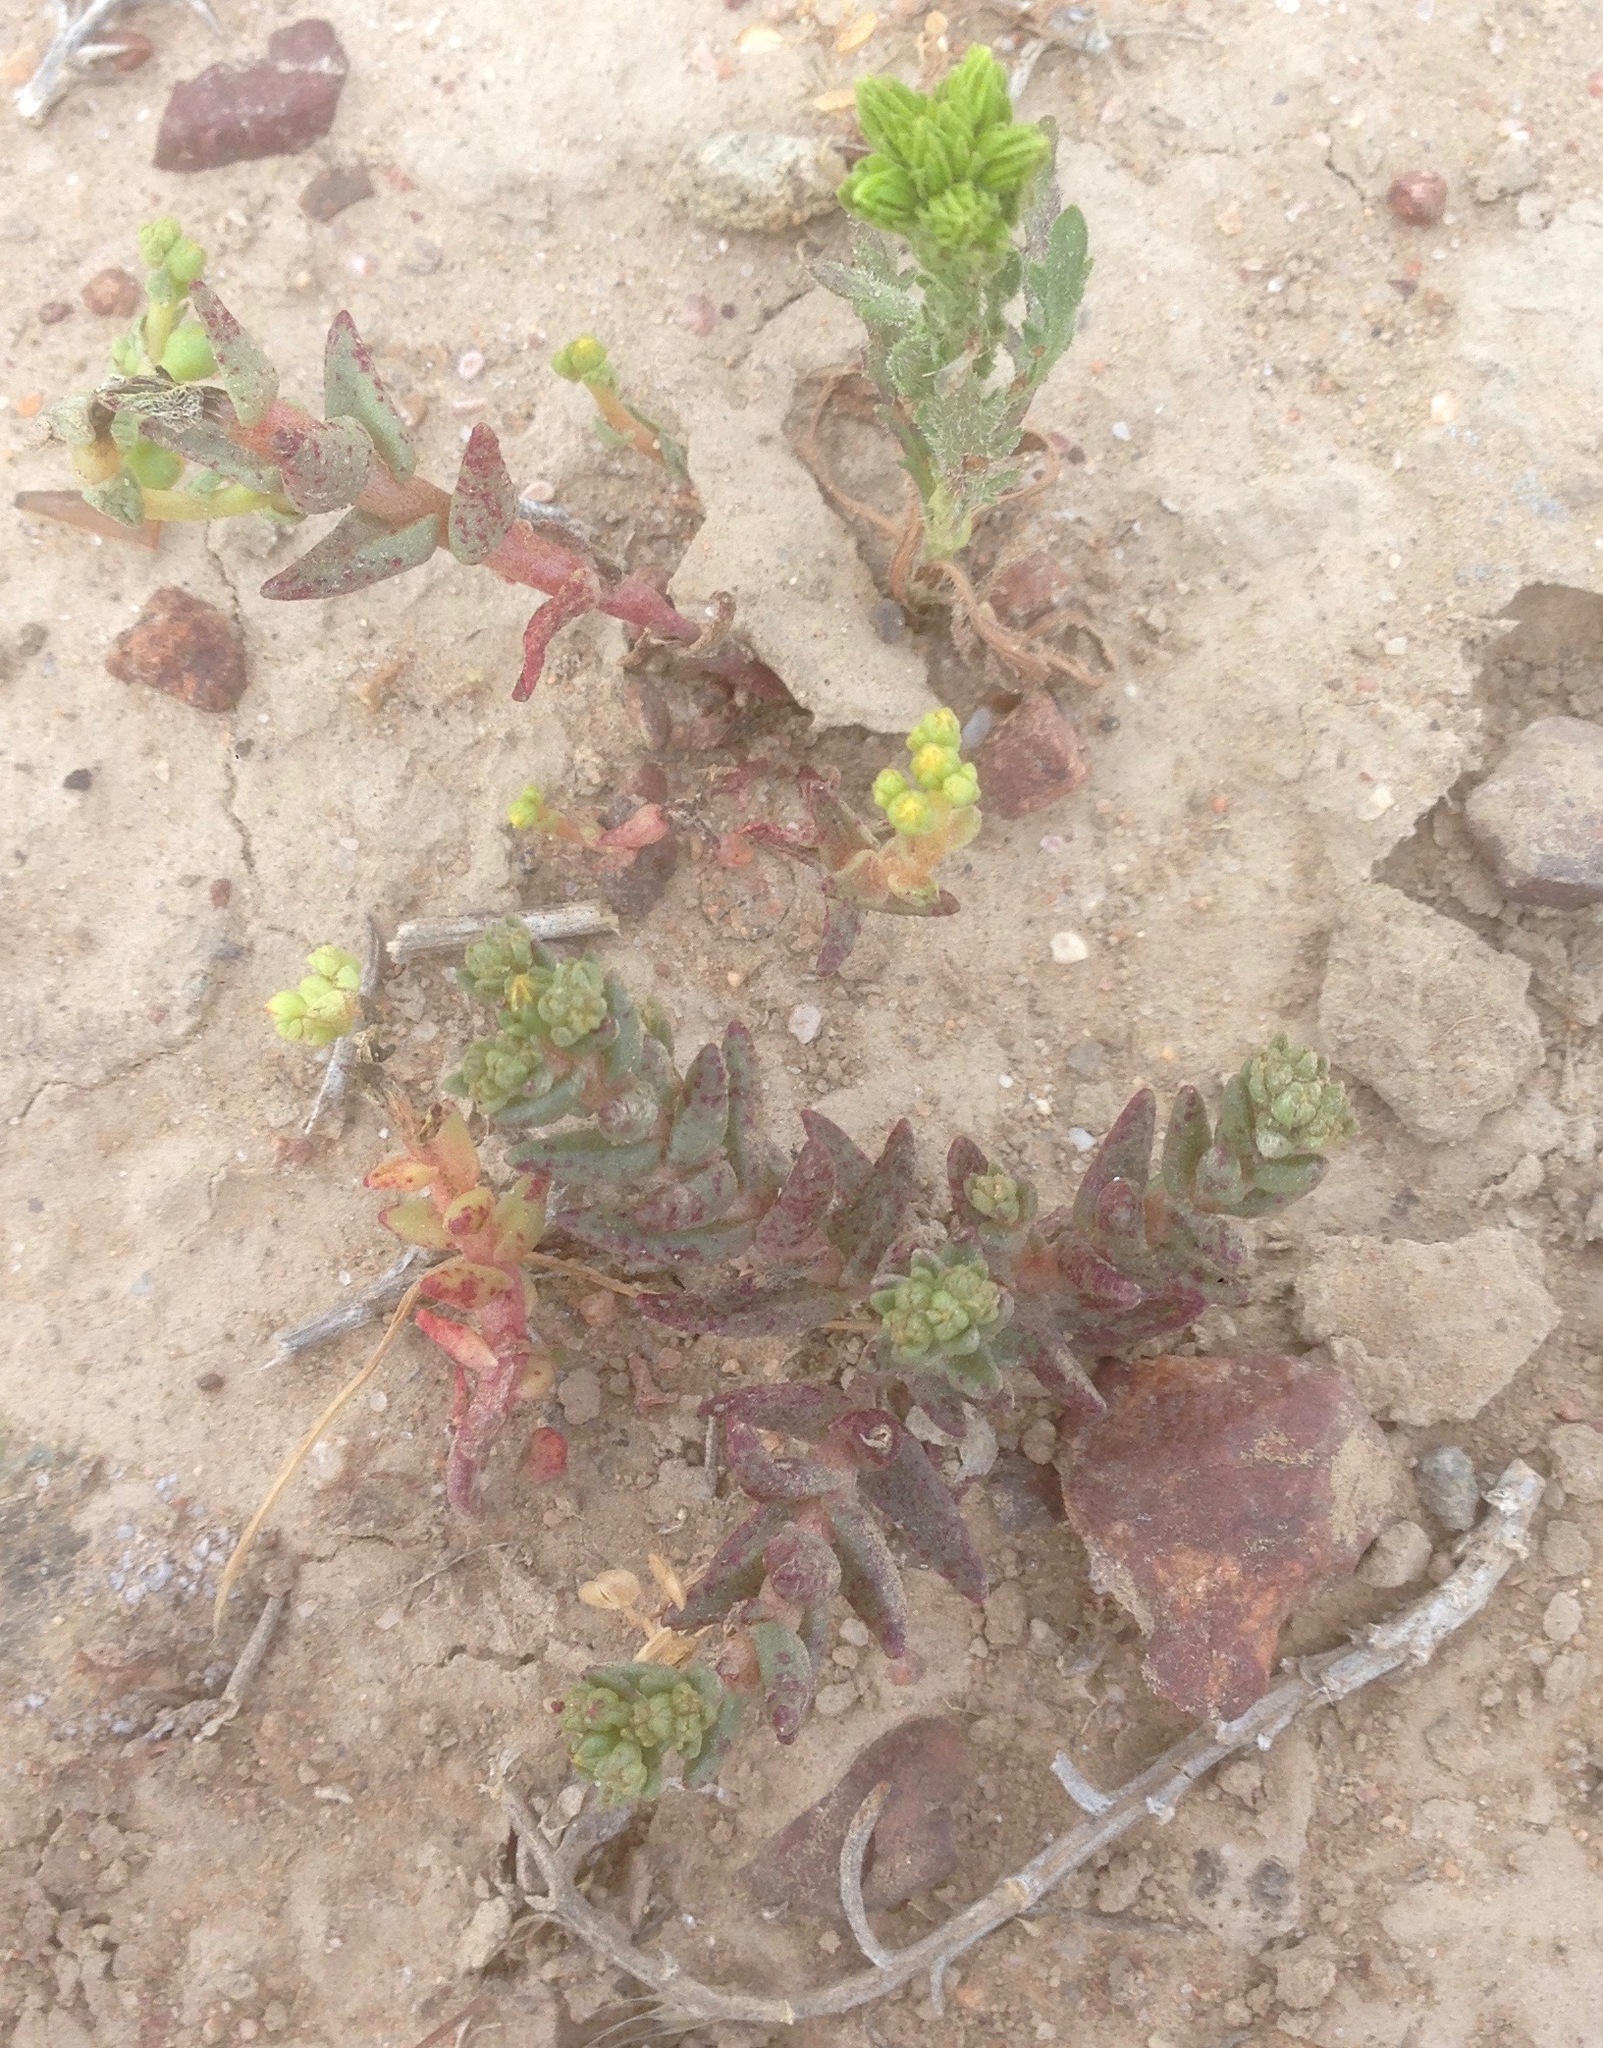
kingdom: Plantae
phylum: Tracheophyta
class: Magnoliopsida
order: Saxifragales
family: Crassulaceae
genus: Dudleya
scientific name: Dudleya variegata
